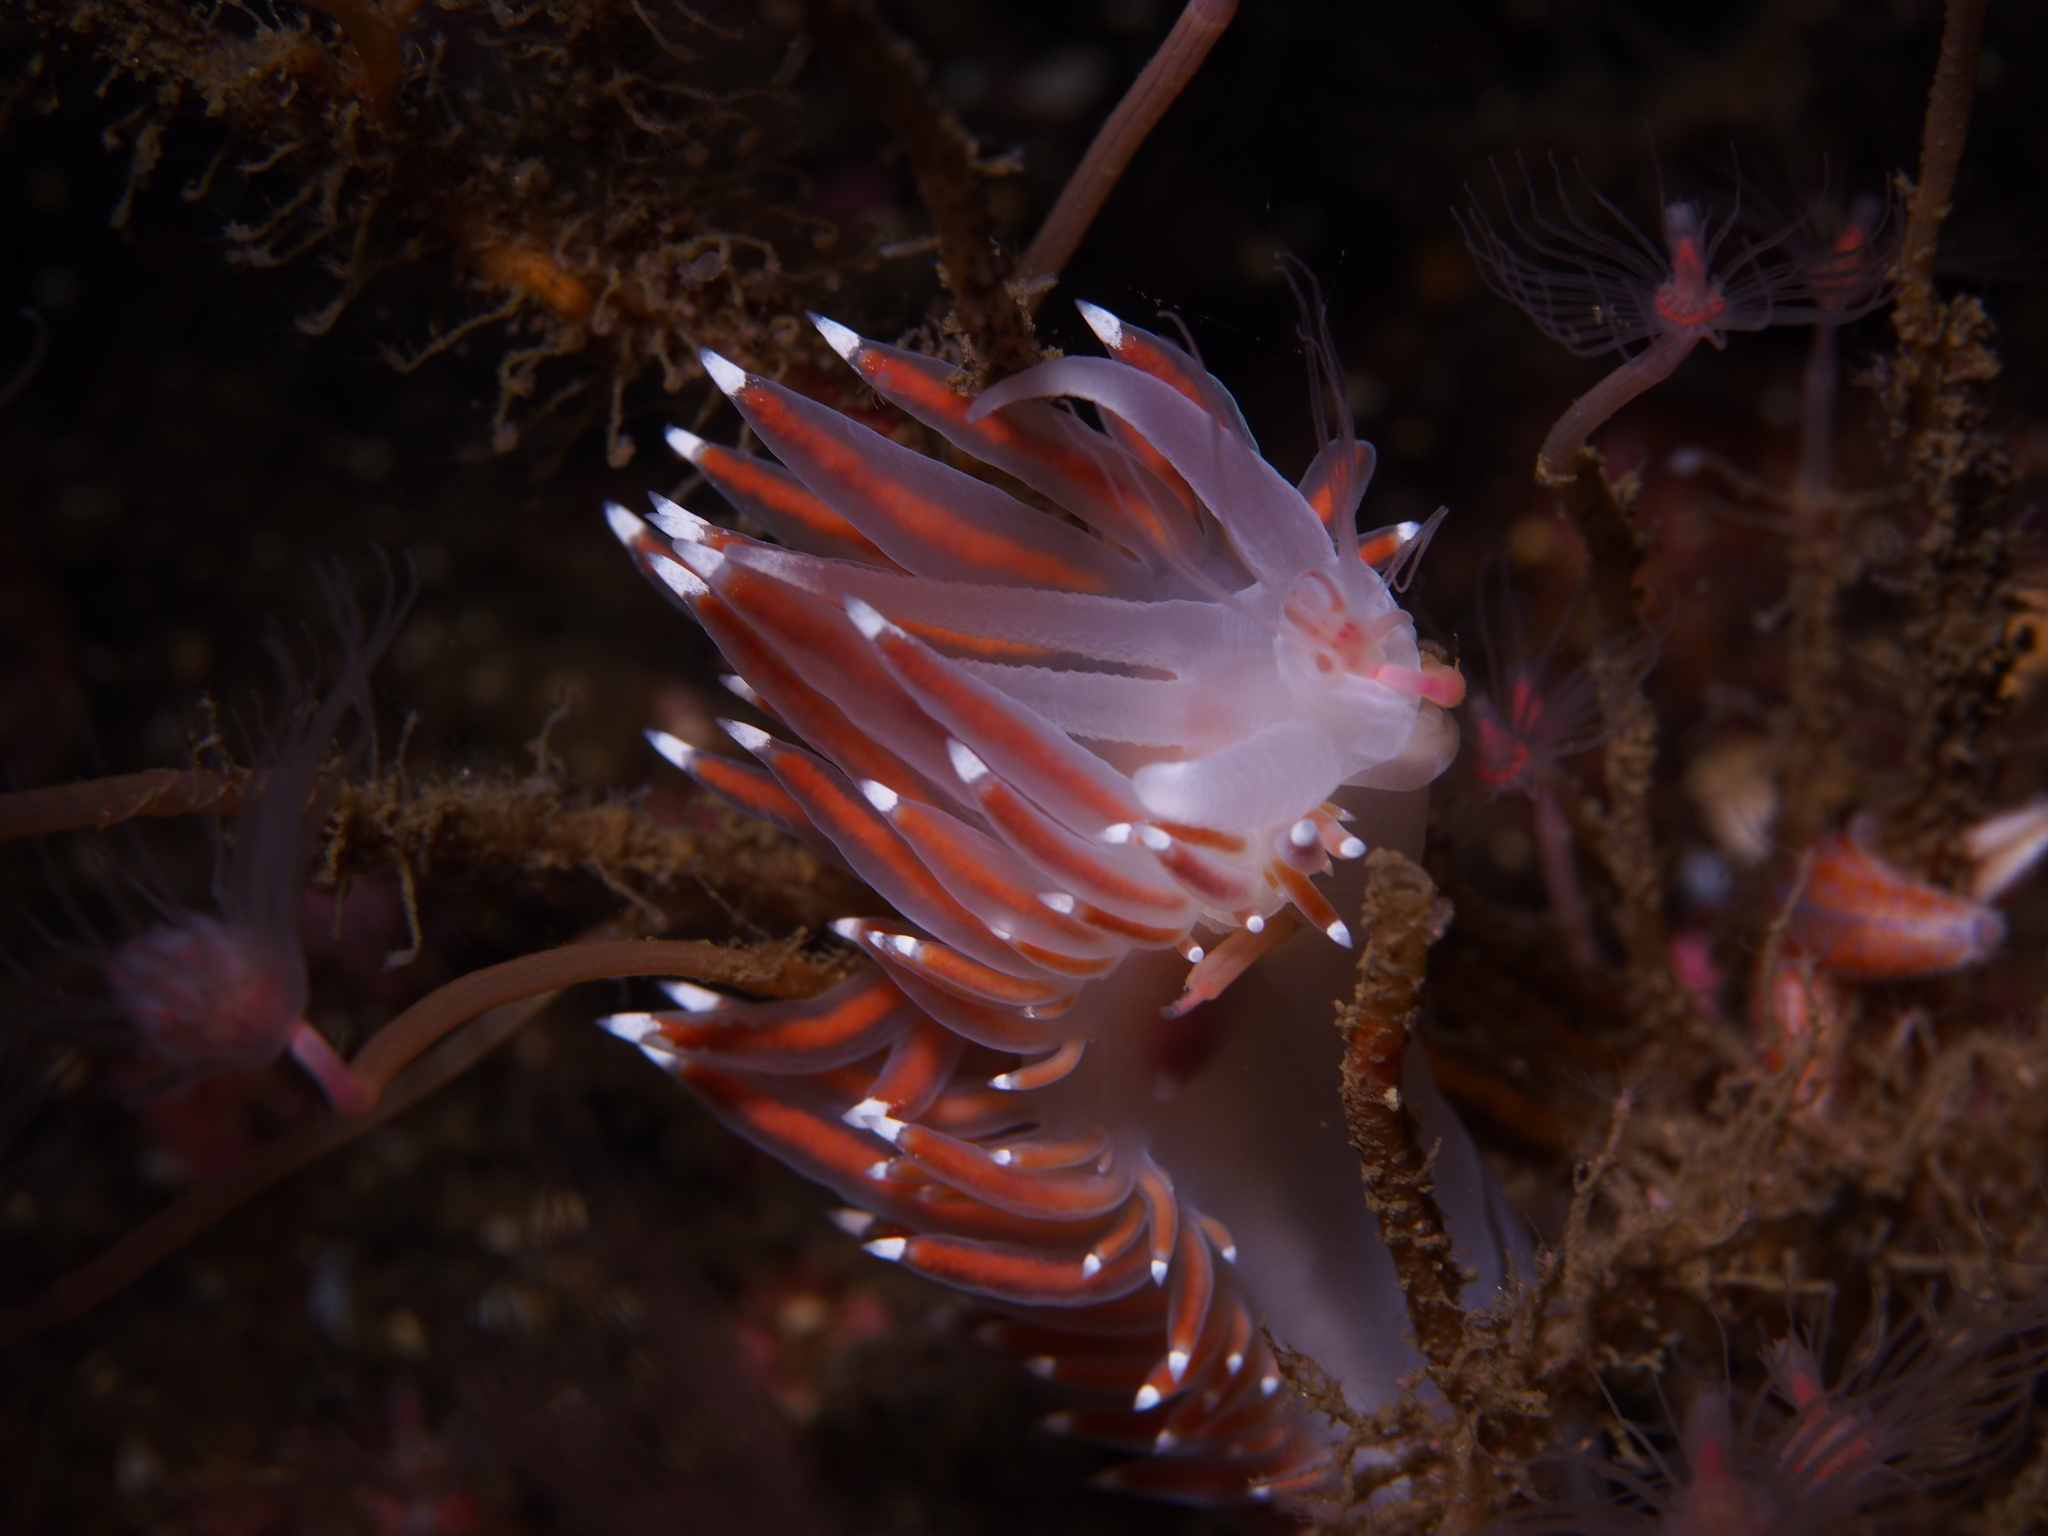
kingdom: Animalia
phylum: Mollusca
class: Gastropoda
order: Nudibranchia
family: Coryphellidae
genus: Coryphella
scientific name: Coryphella browni
